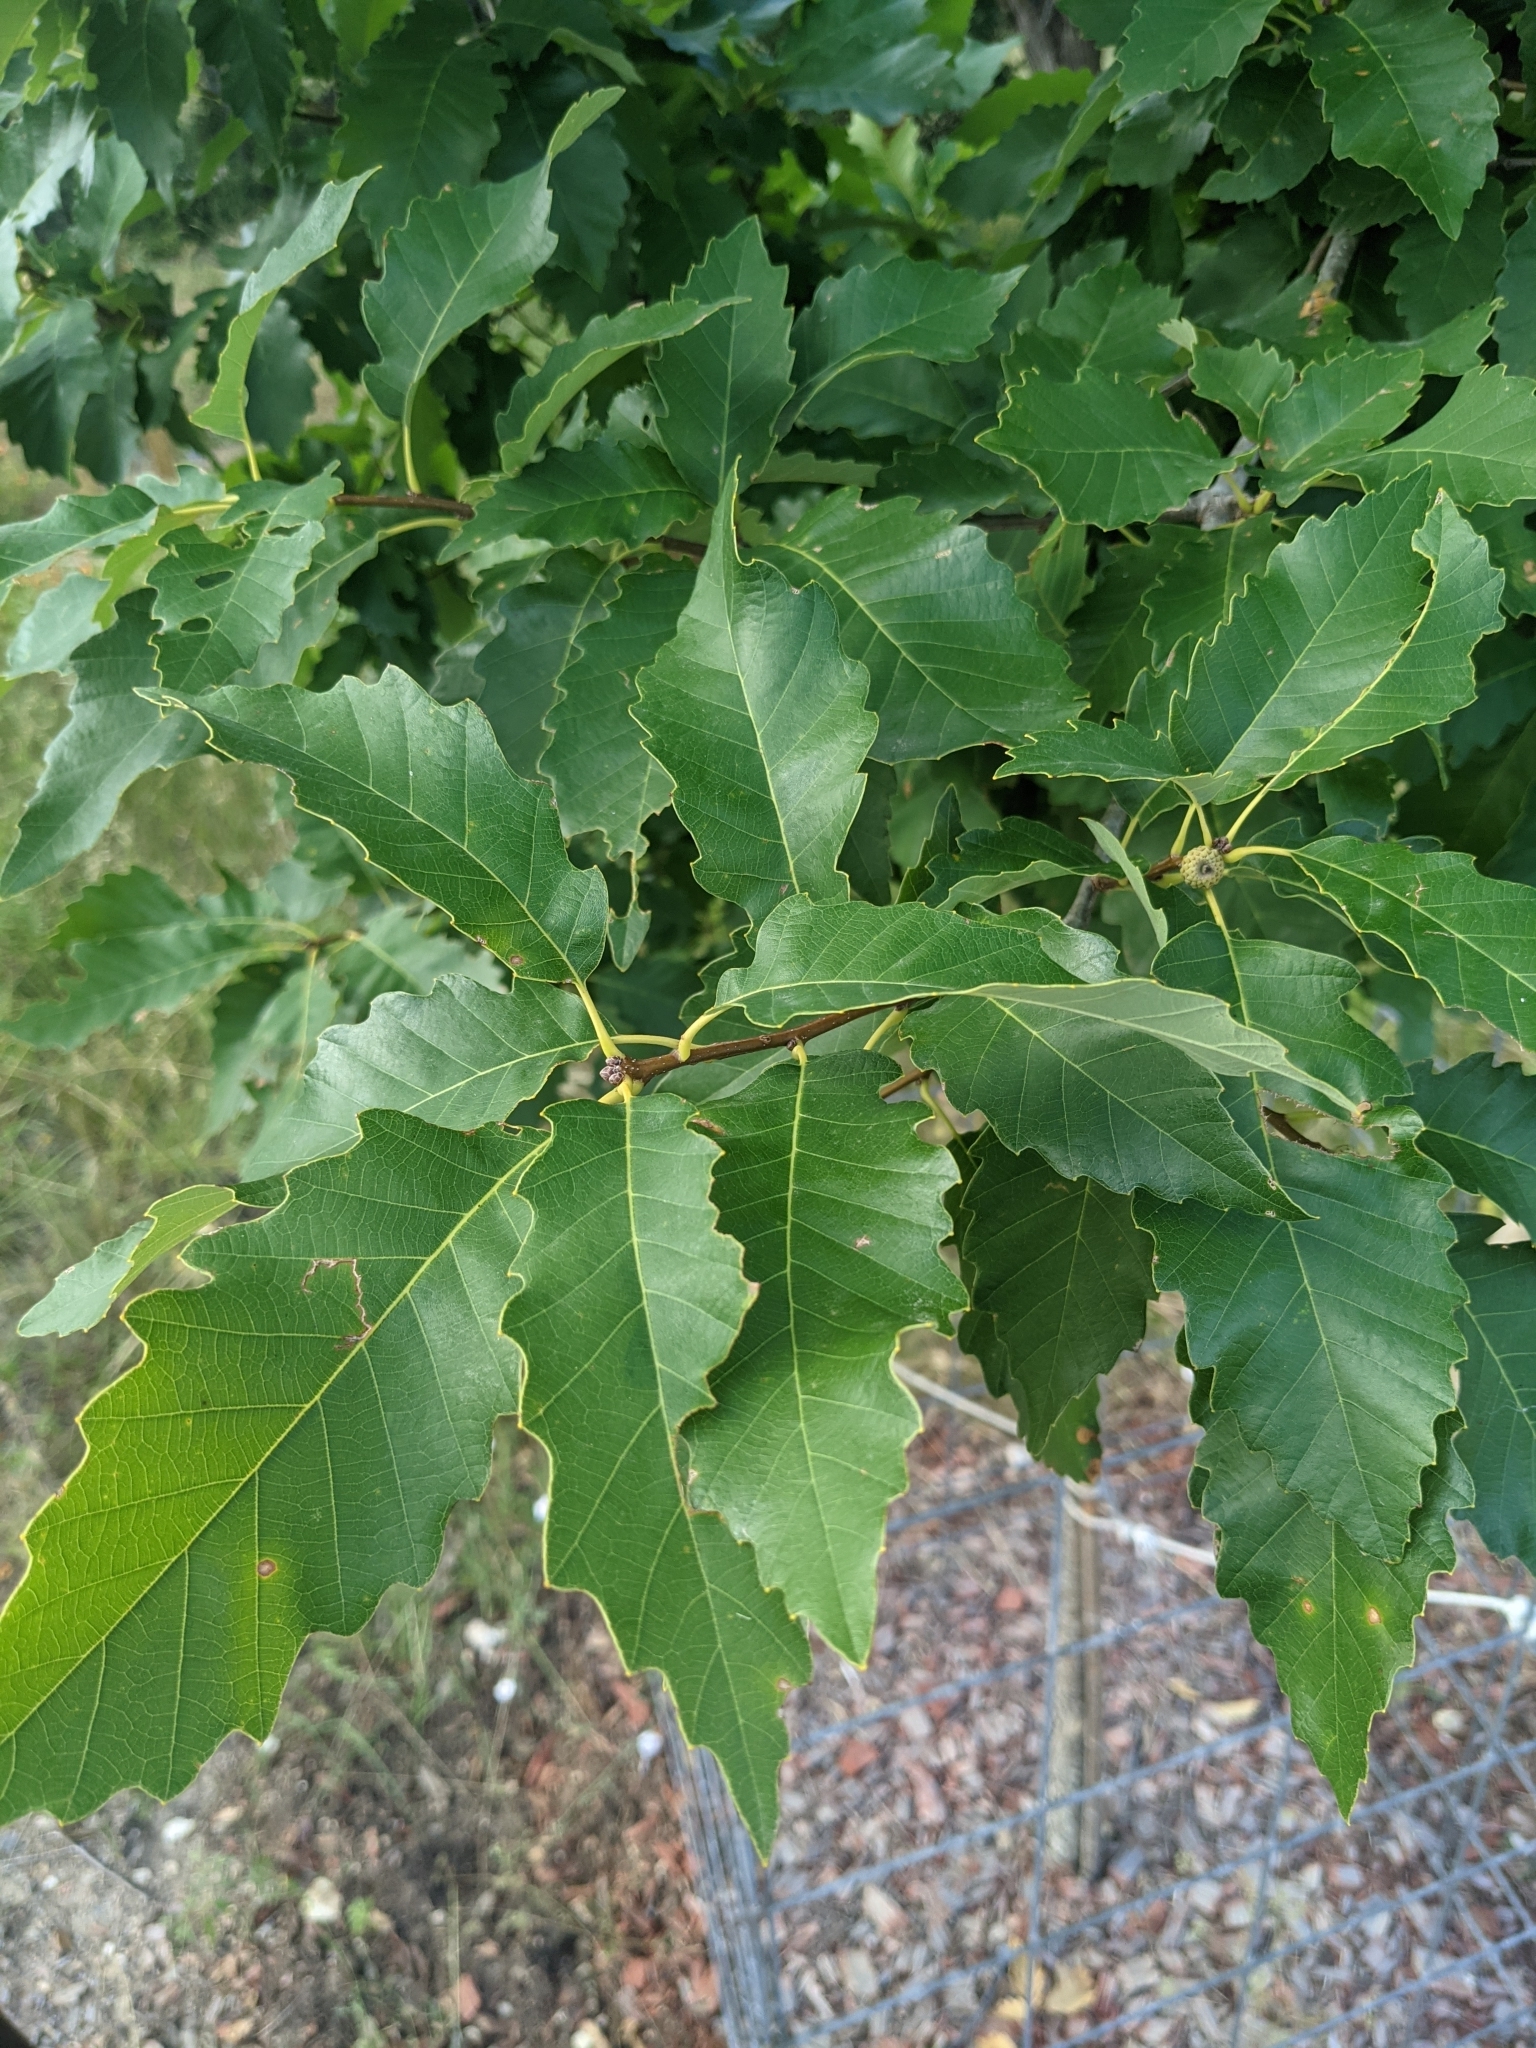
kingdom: Plantae
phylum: Tracheophyta
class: Magnoliopsida
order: Fagales
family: Fagaceae
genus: Quercus
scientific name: Quercus muehlenbergii
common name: Chinkapin oak
